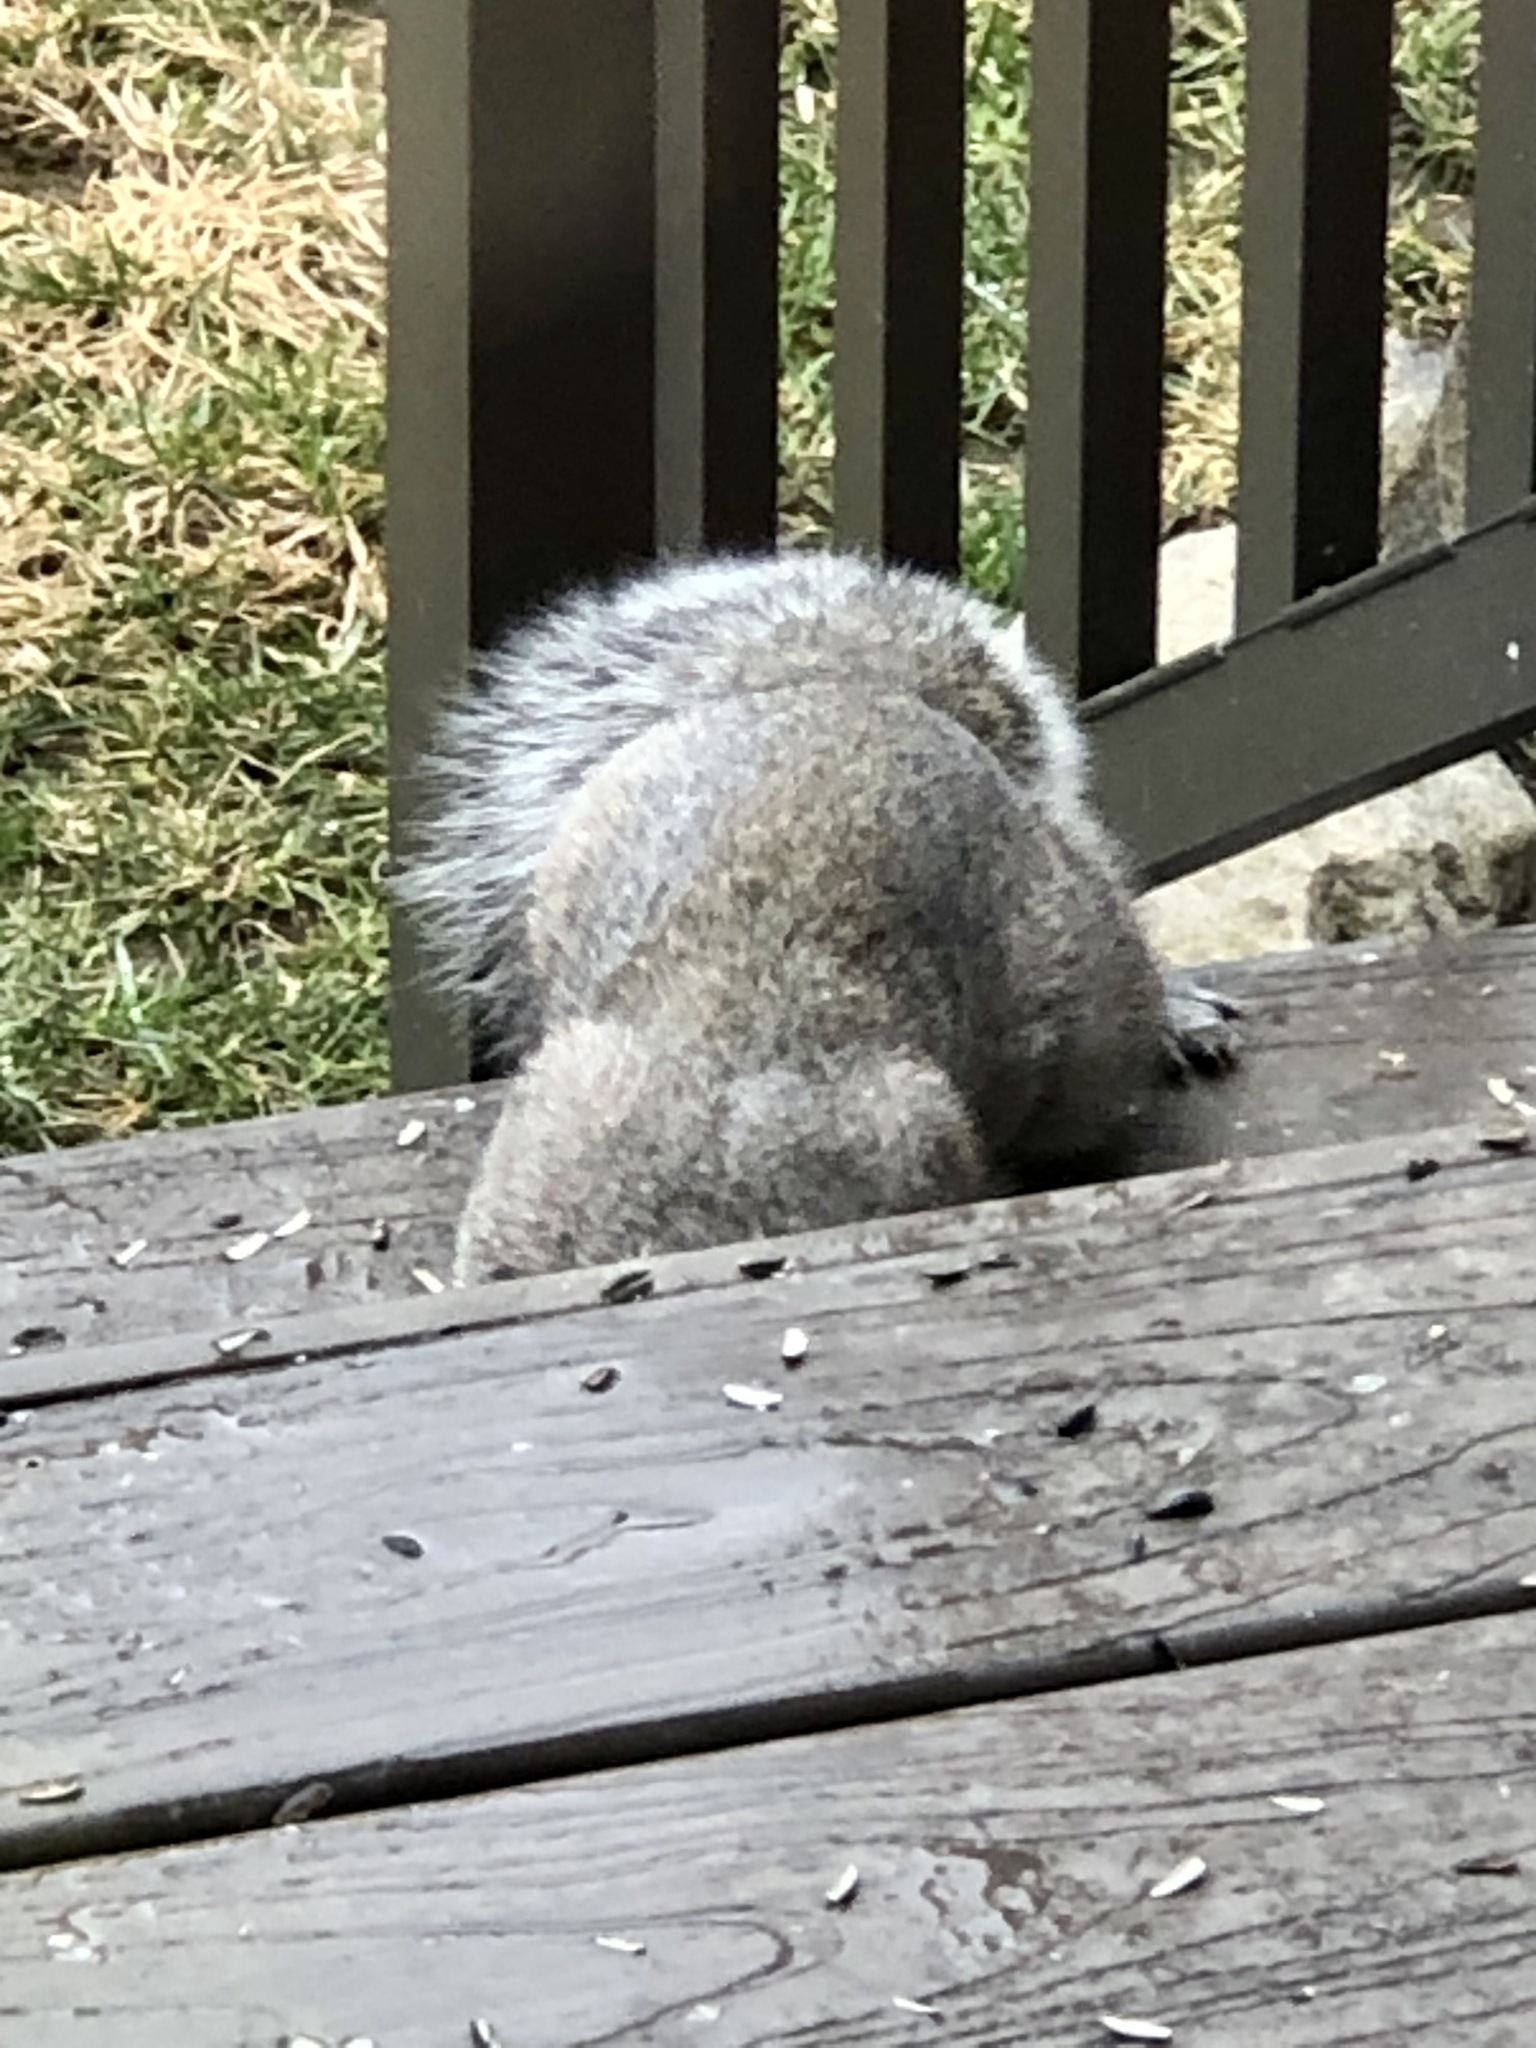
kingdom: Animalia
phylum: Chordata
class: Mammalia
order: Rodentia
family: Sciuridae
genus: Sciurus
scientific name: Sciurus carolinensis
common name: Eastern gray squirrel
